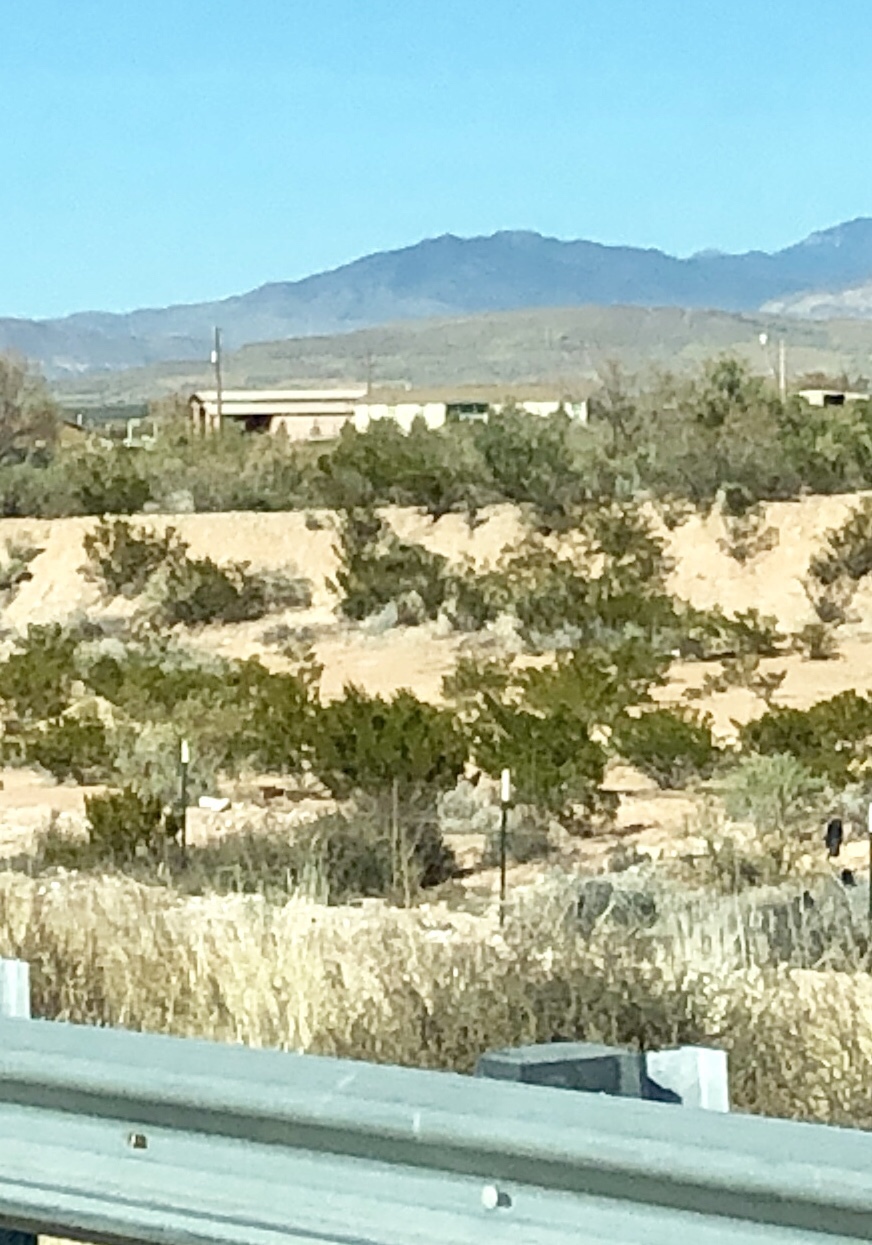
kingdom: Plantae
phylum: Tracheophyta
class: Magnoliopsida
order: Zygophyllales
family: Zygophyllaceae
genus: Larrea
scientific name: Larrea tridentata
